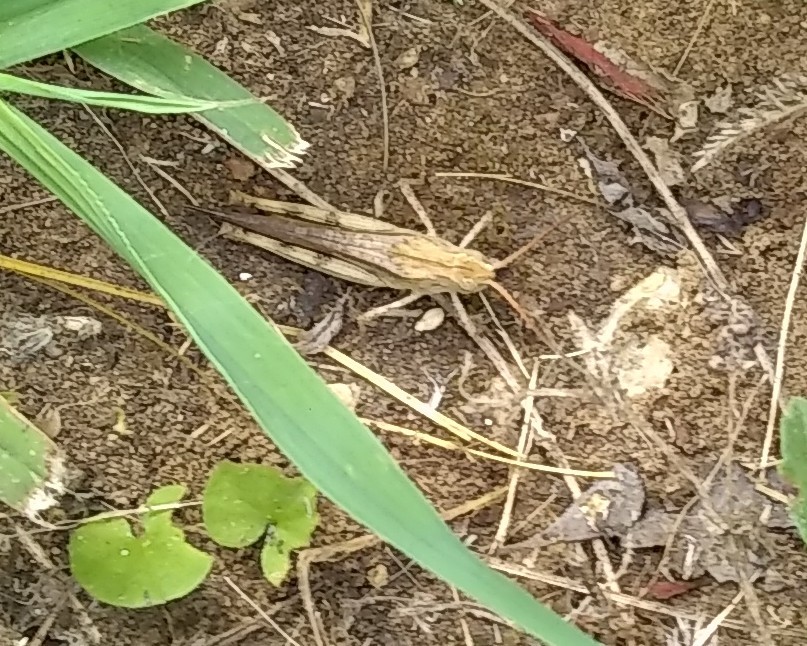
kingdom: Animalia
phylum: Arthropoda
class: Insecta
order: Orthoptera
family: Acrididae
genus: Chortophaga
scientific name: Chortophaga viridifasciata
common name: Green-striped grasshopper
